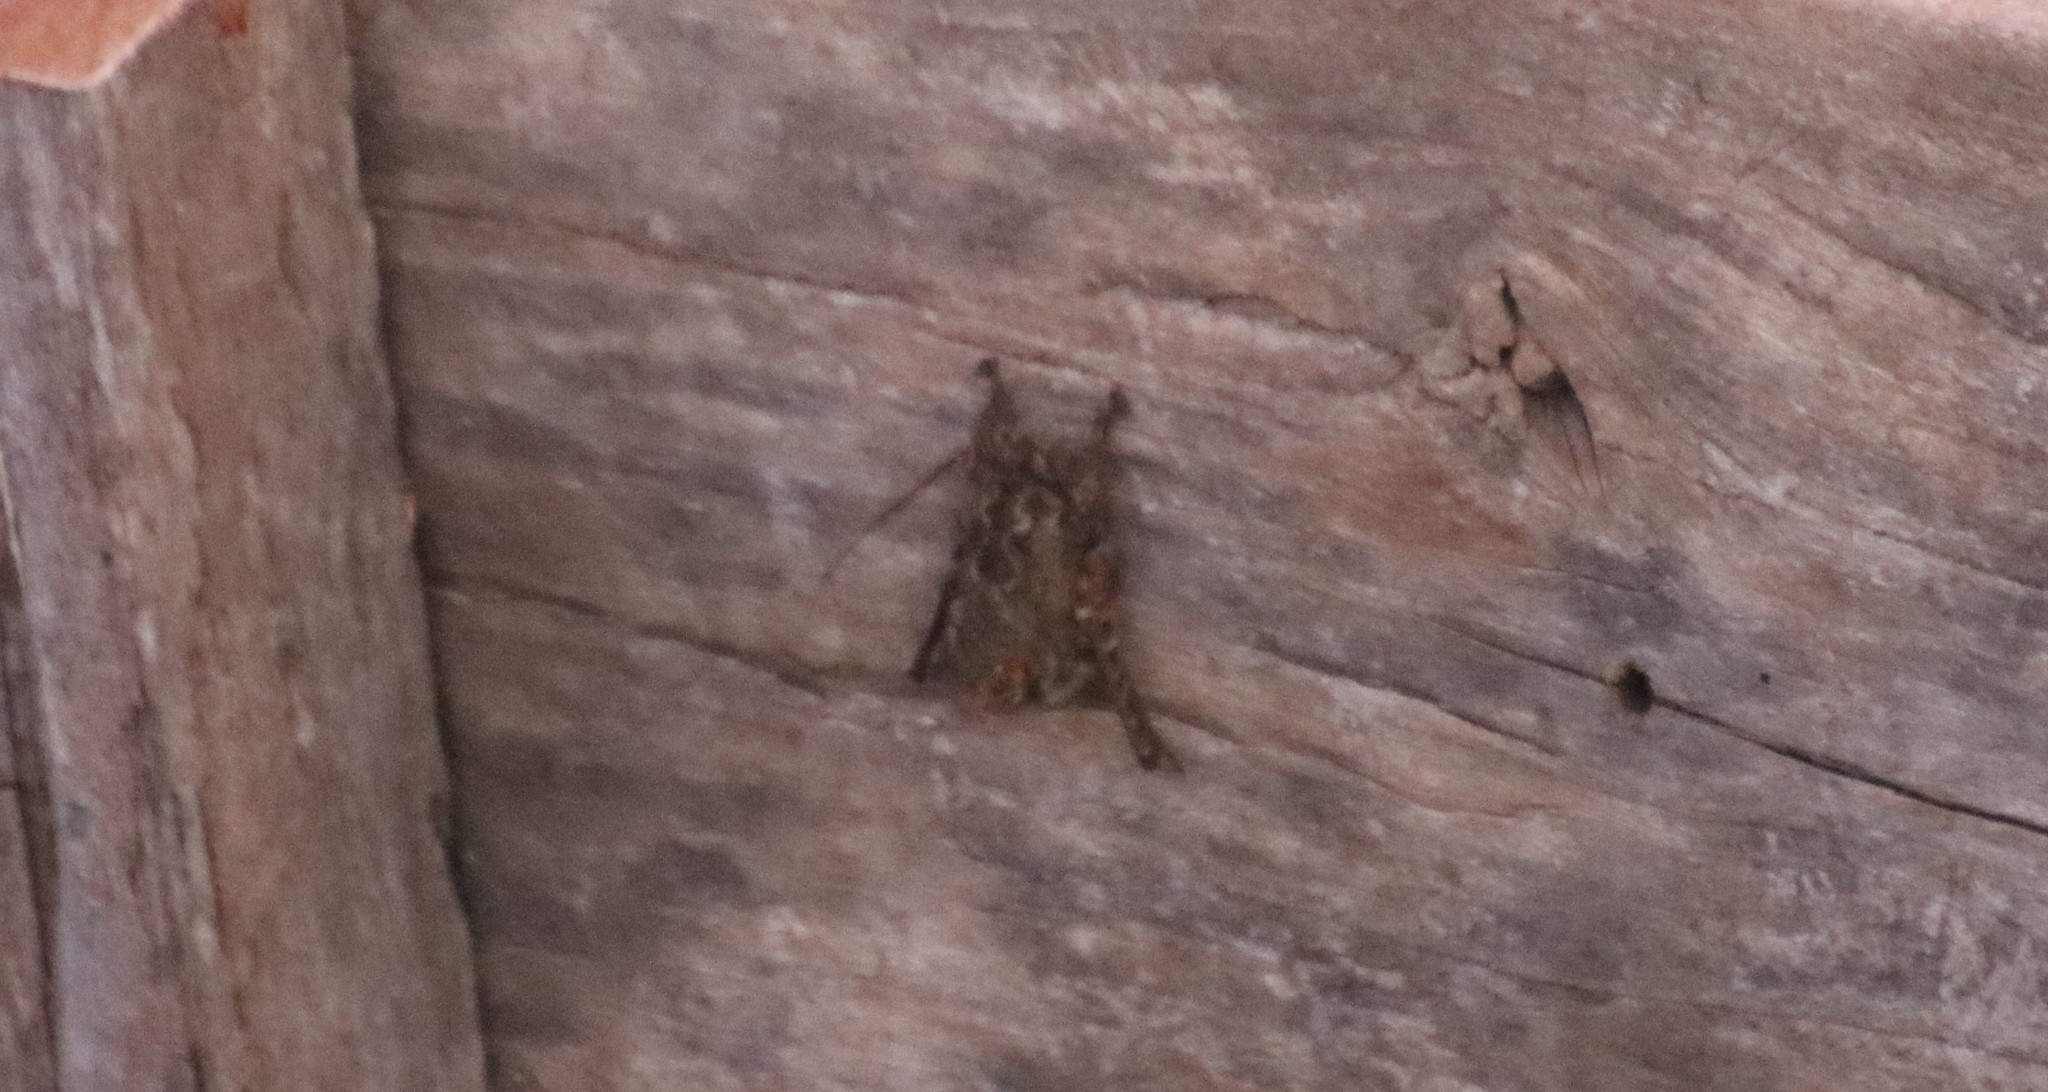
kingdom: Animalia
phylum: Chordata
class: Mammalia
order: Chiroptera
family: Emballonuridae
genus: Rhynchonycteris
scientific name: Rhynchonycteris naso
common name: Proboscis bat
